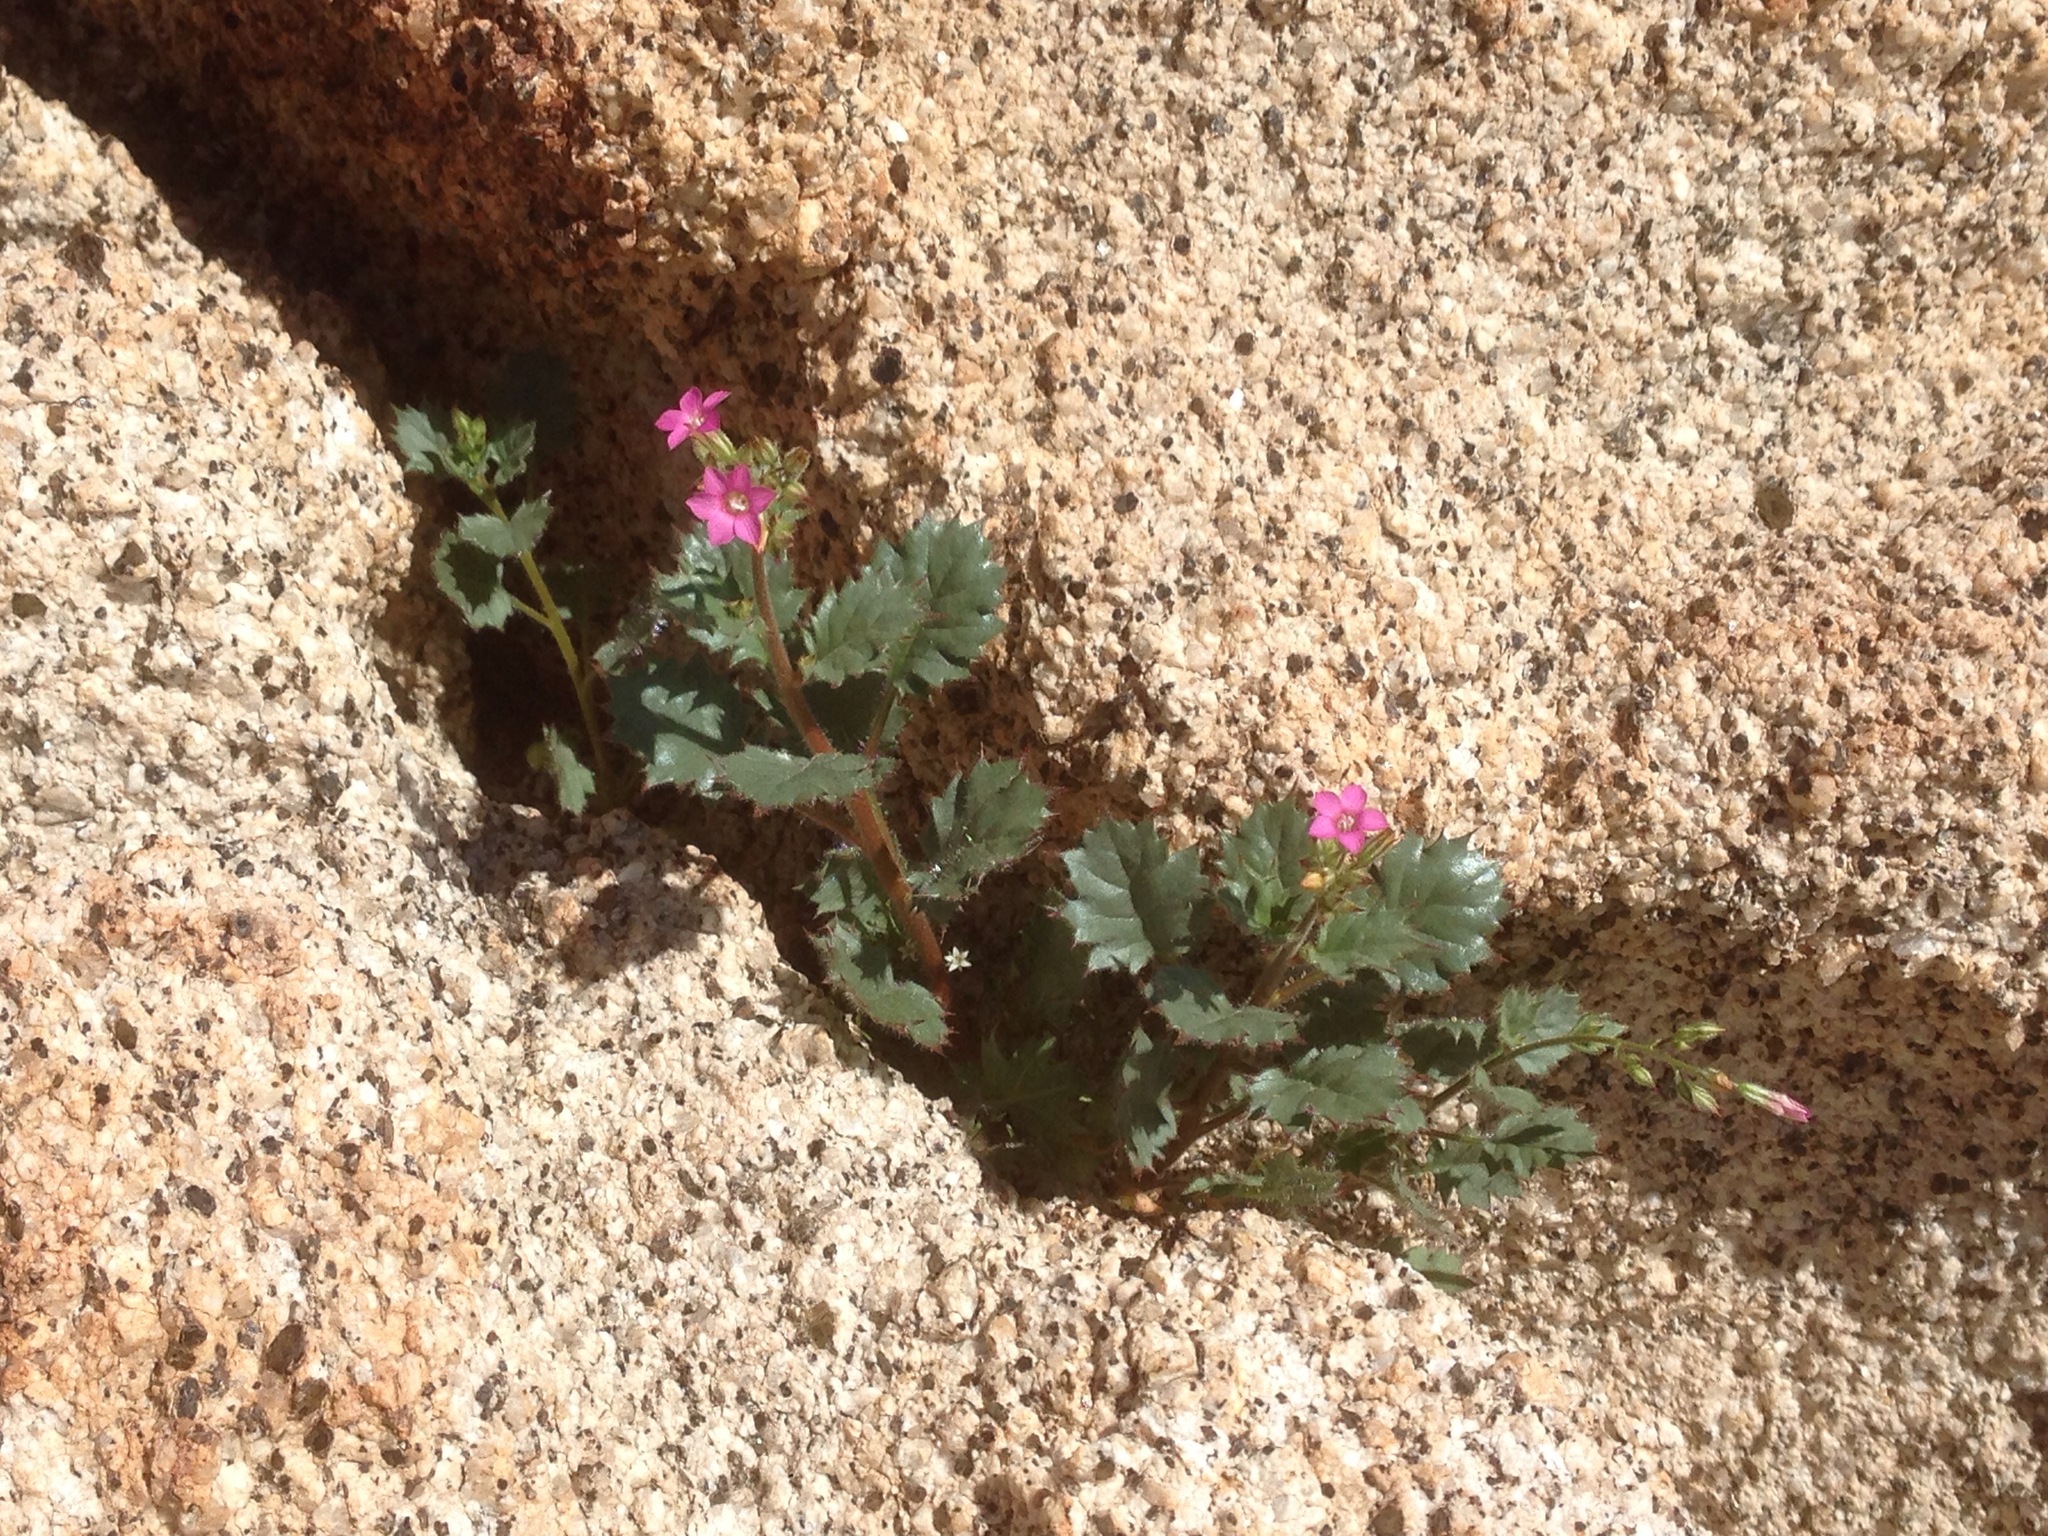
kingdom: Plantae
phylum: Tracheophyta
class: Magnoliopsida
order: Ericales
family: Polemoniaceae
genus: Aliciella
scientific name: Aliciella latifolia
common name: Broad-leaf gilia
